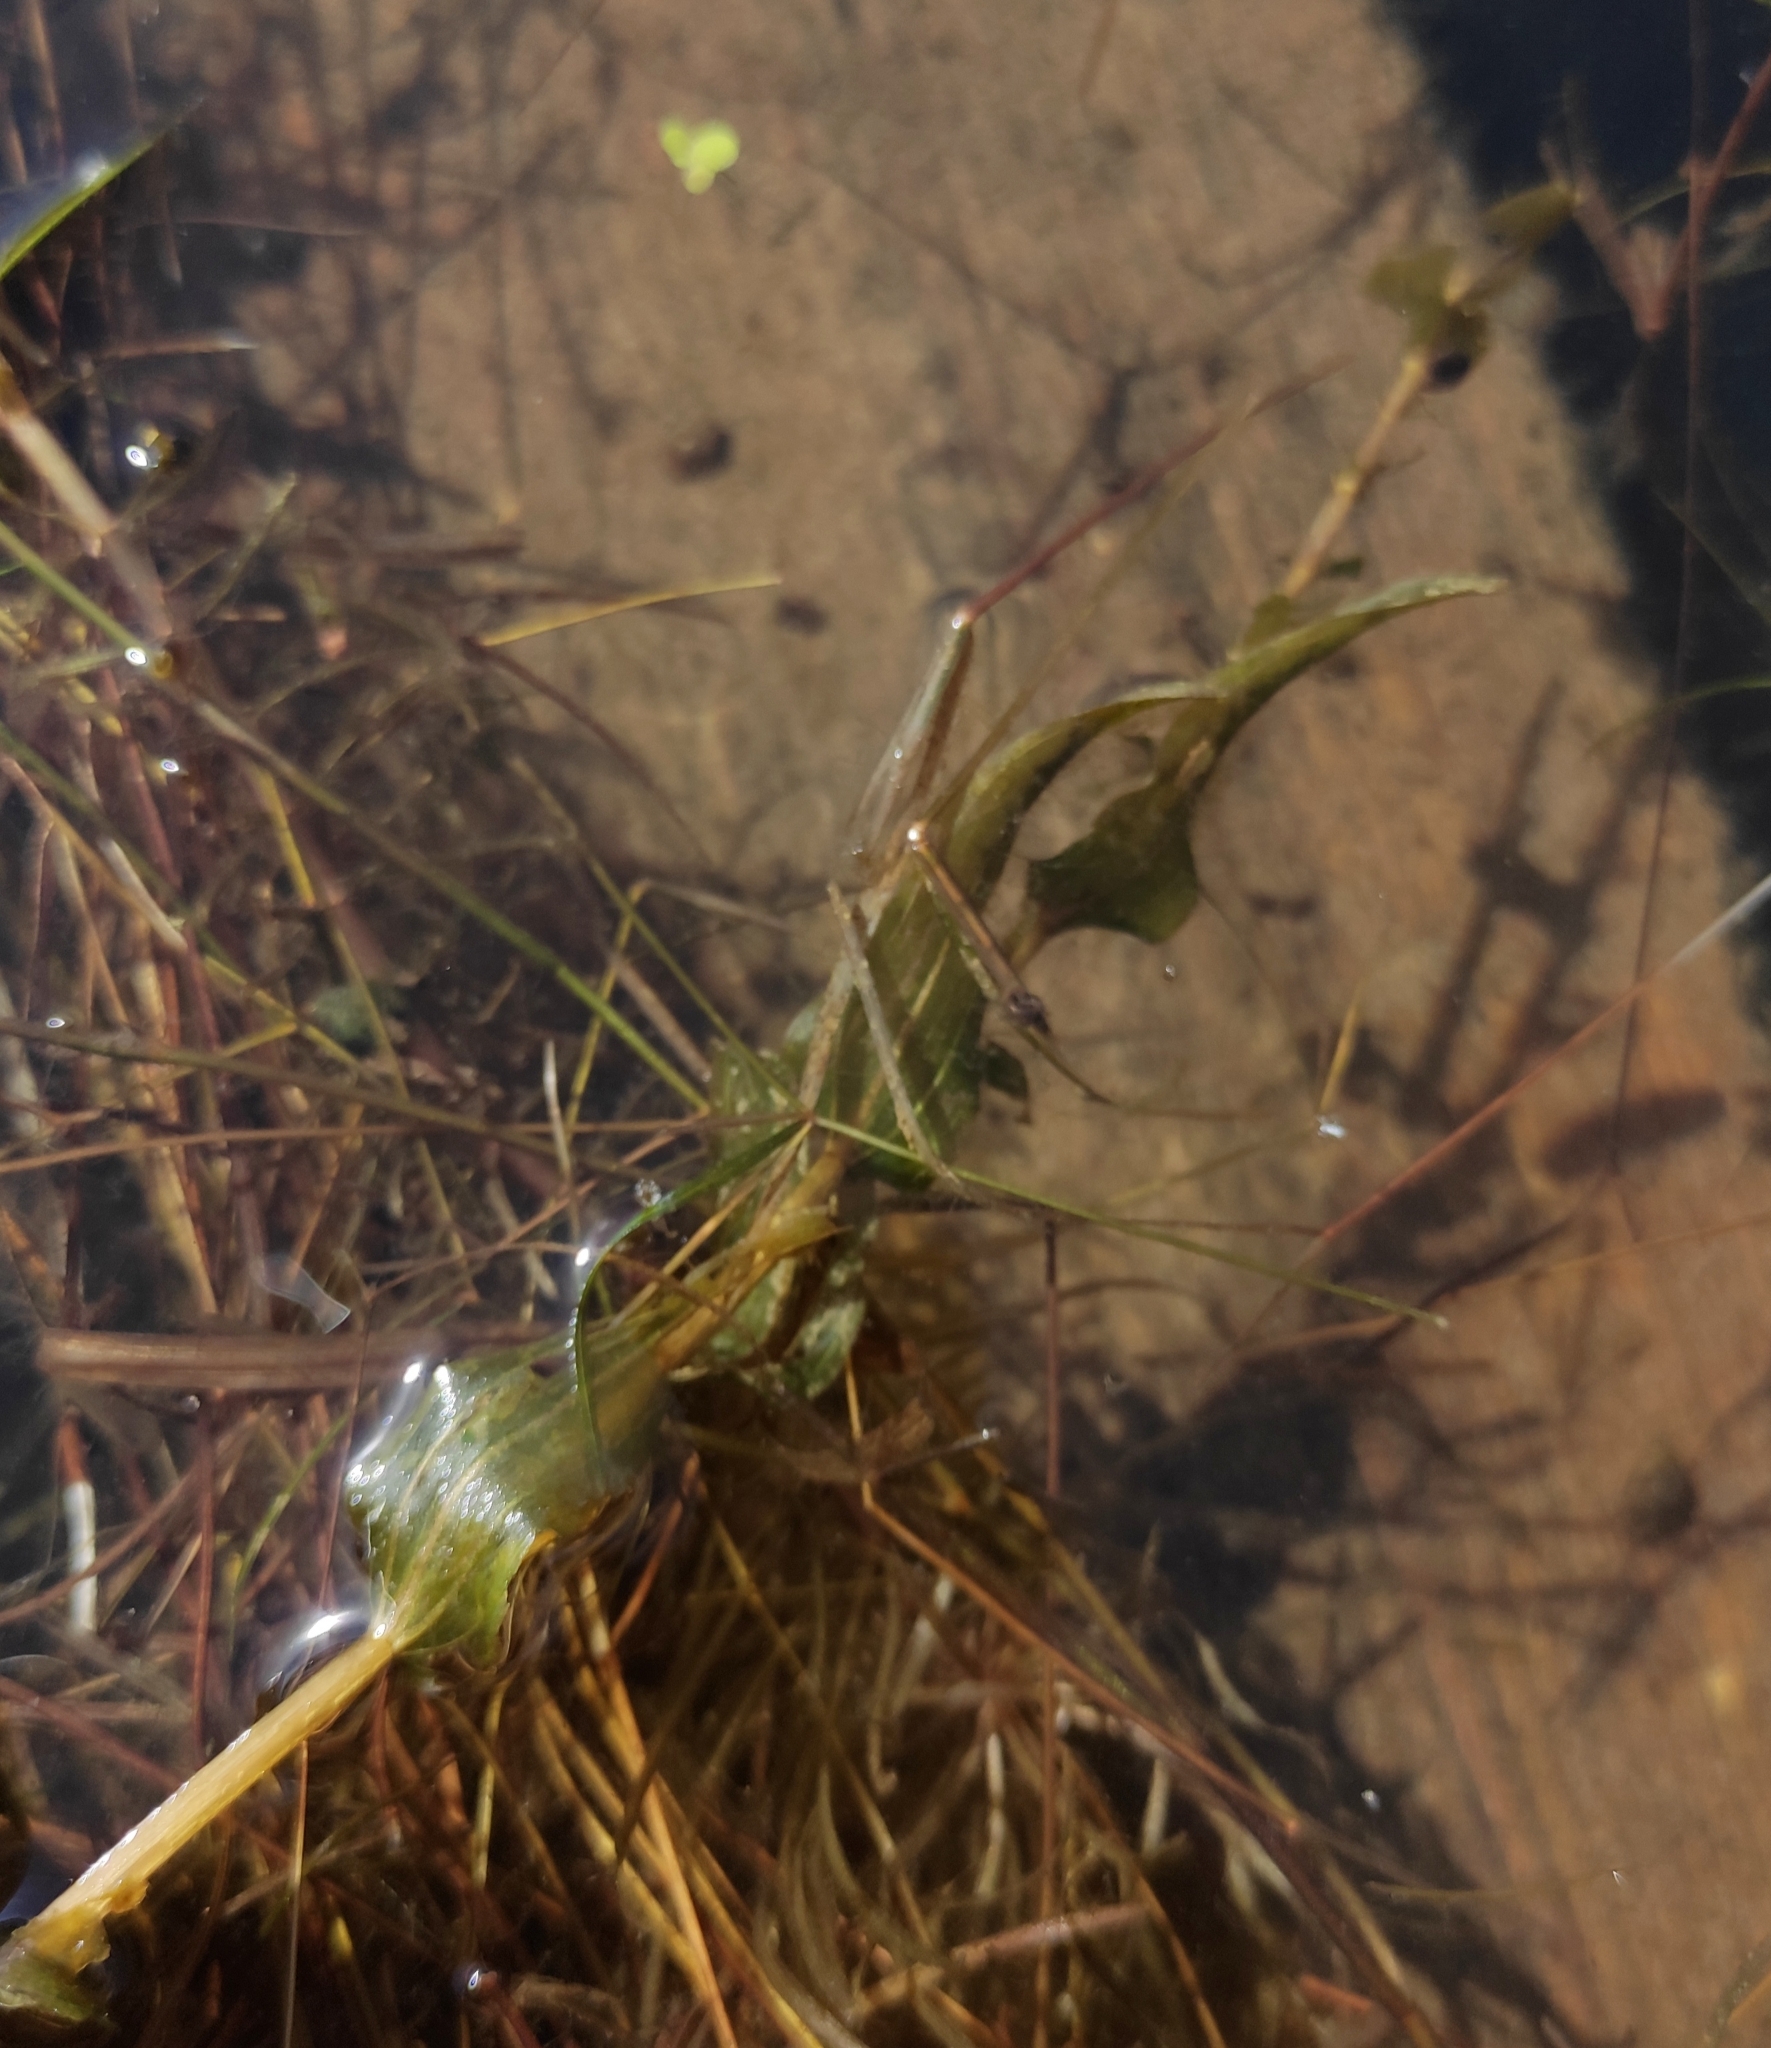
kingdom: Plantae
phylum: Tracheophyta
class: Liliopsida
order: Alismatales
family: Potamogetonaceae
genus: Potamogeton
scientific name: Potamogeton perfoliatus
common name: Perfoliate pondweed
